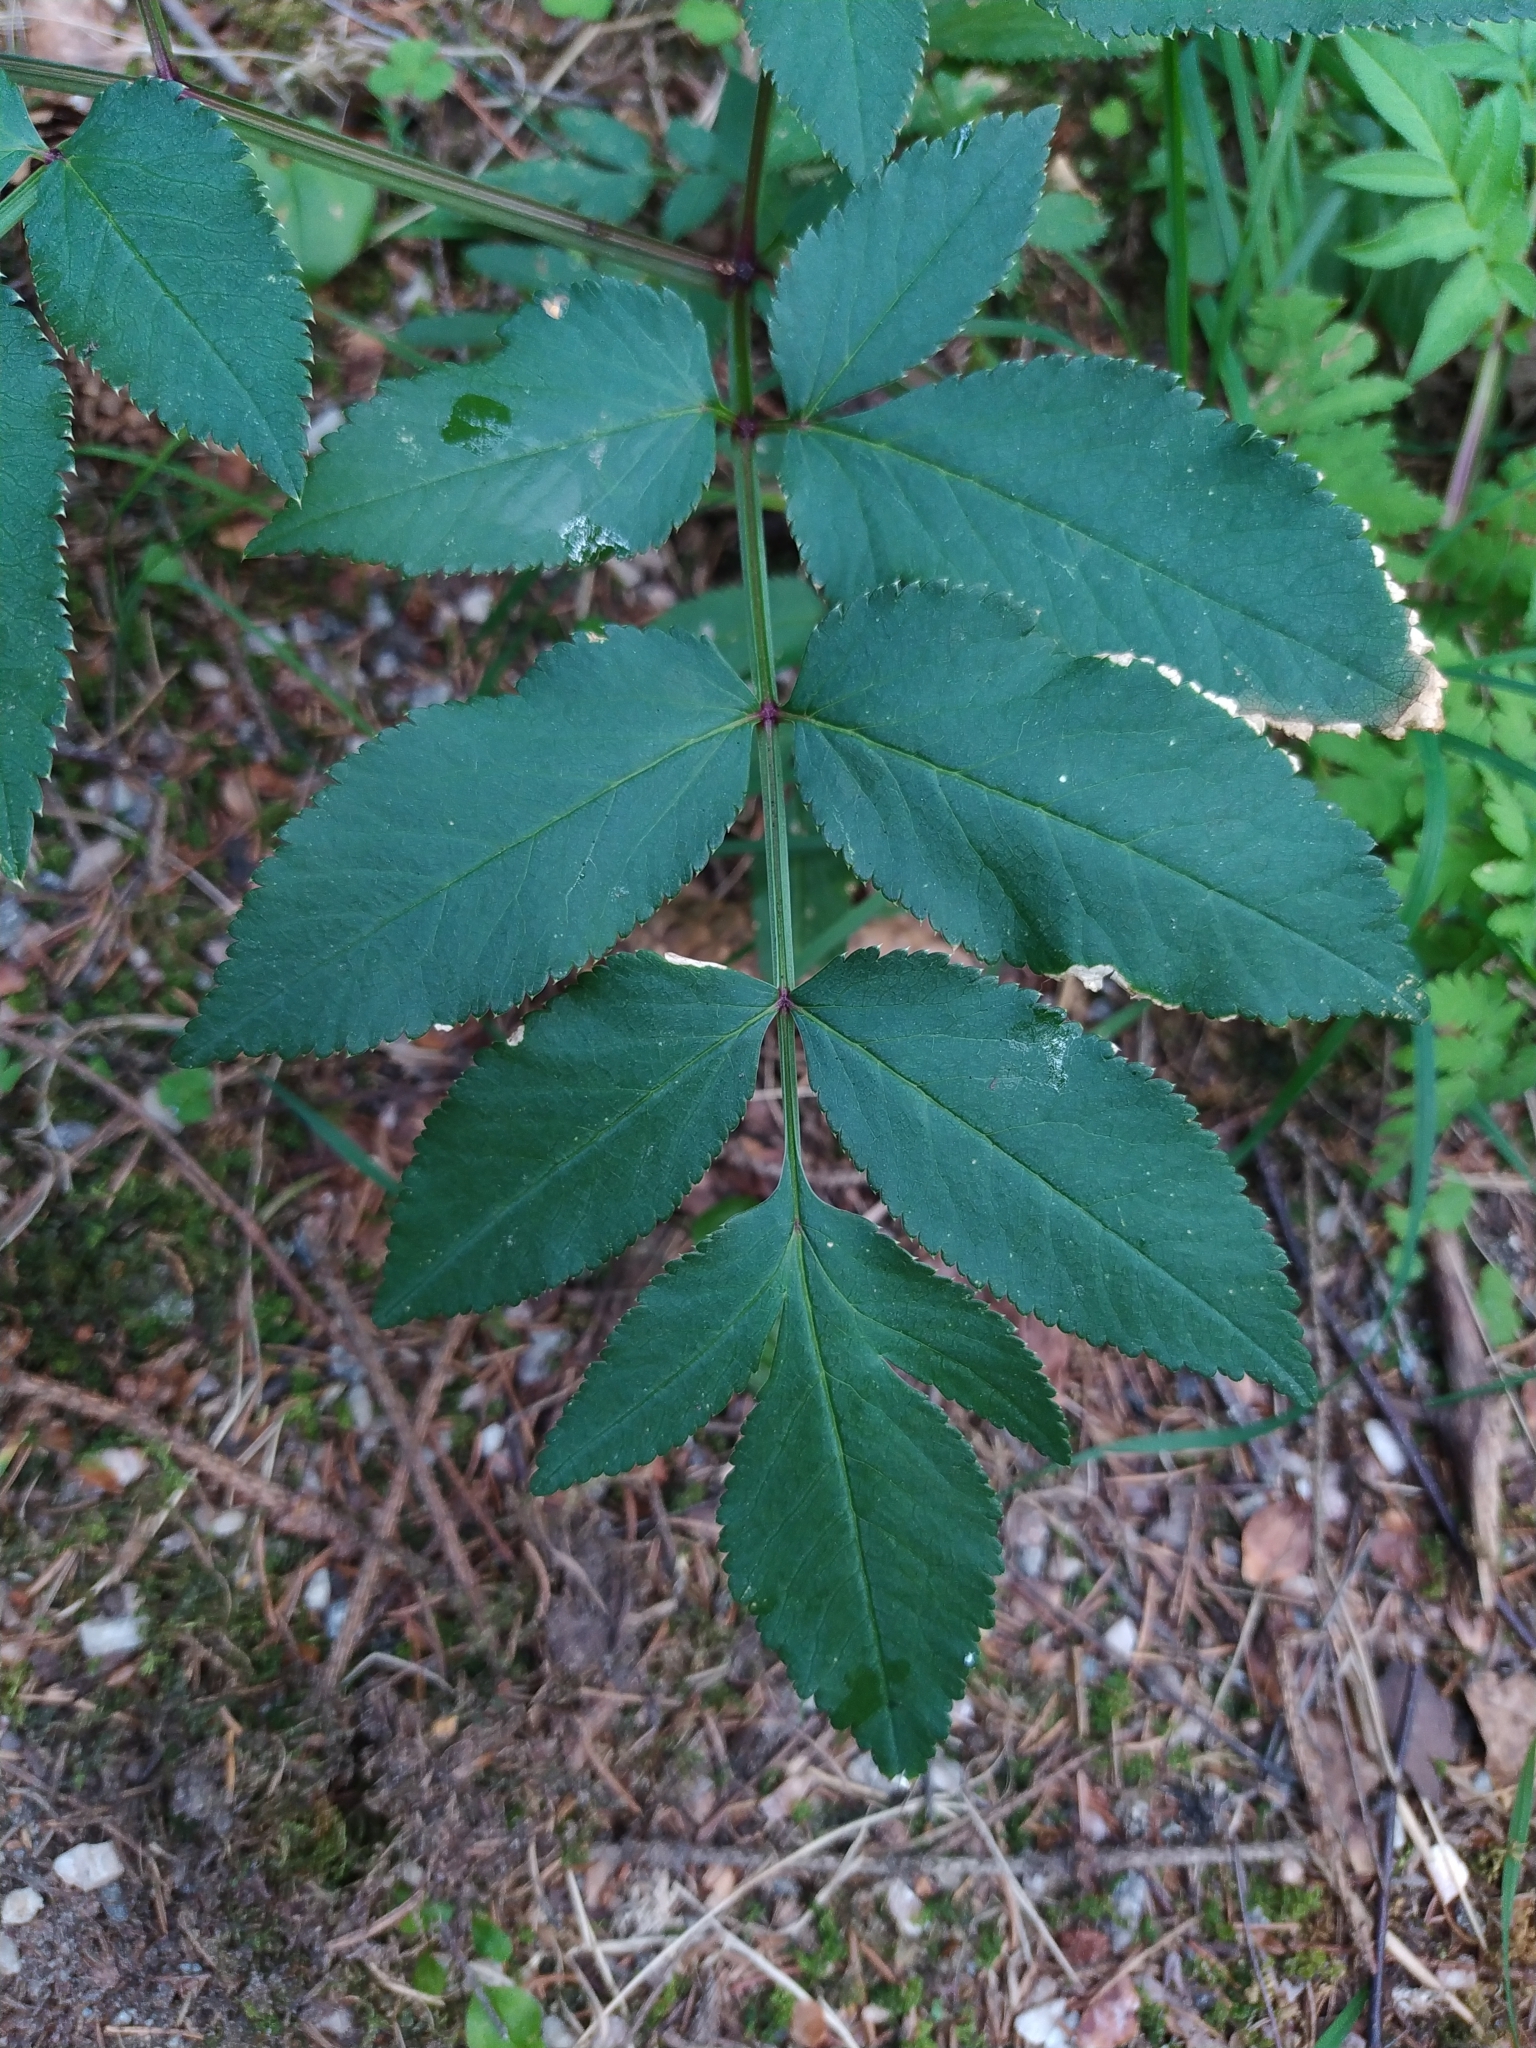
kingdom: Plantae
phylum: Tracheophyta
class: Magnoliopsida
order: Apiales
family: Apiaceae
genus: Angelica
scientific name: Angelica sylvestris
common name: Wild angelica
